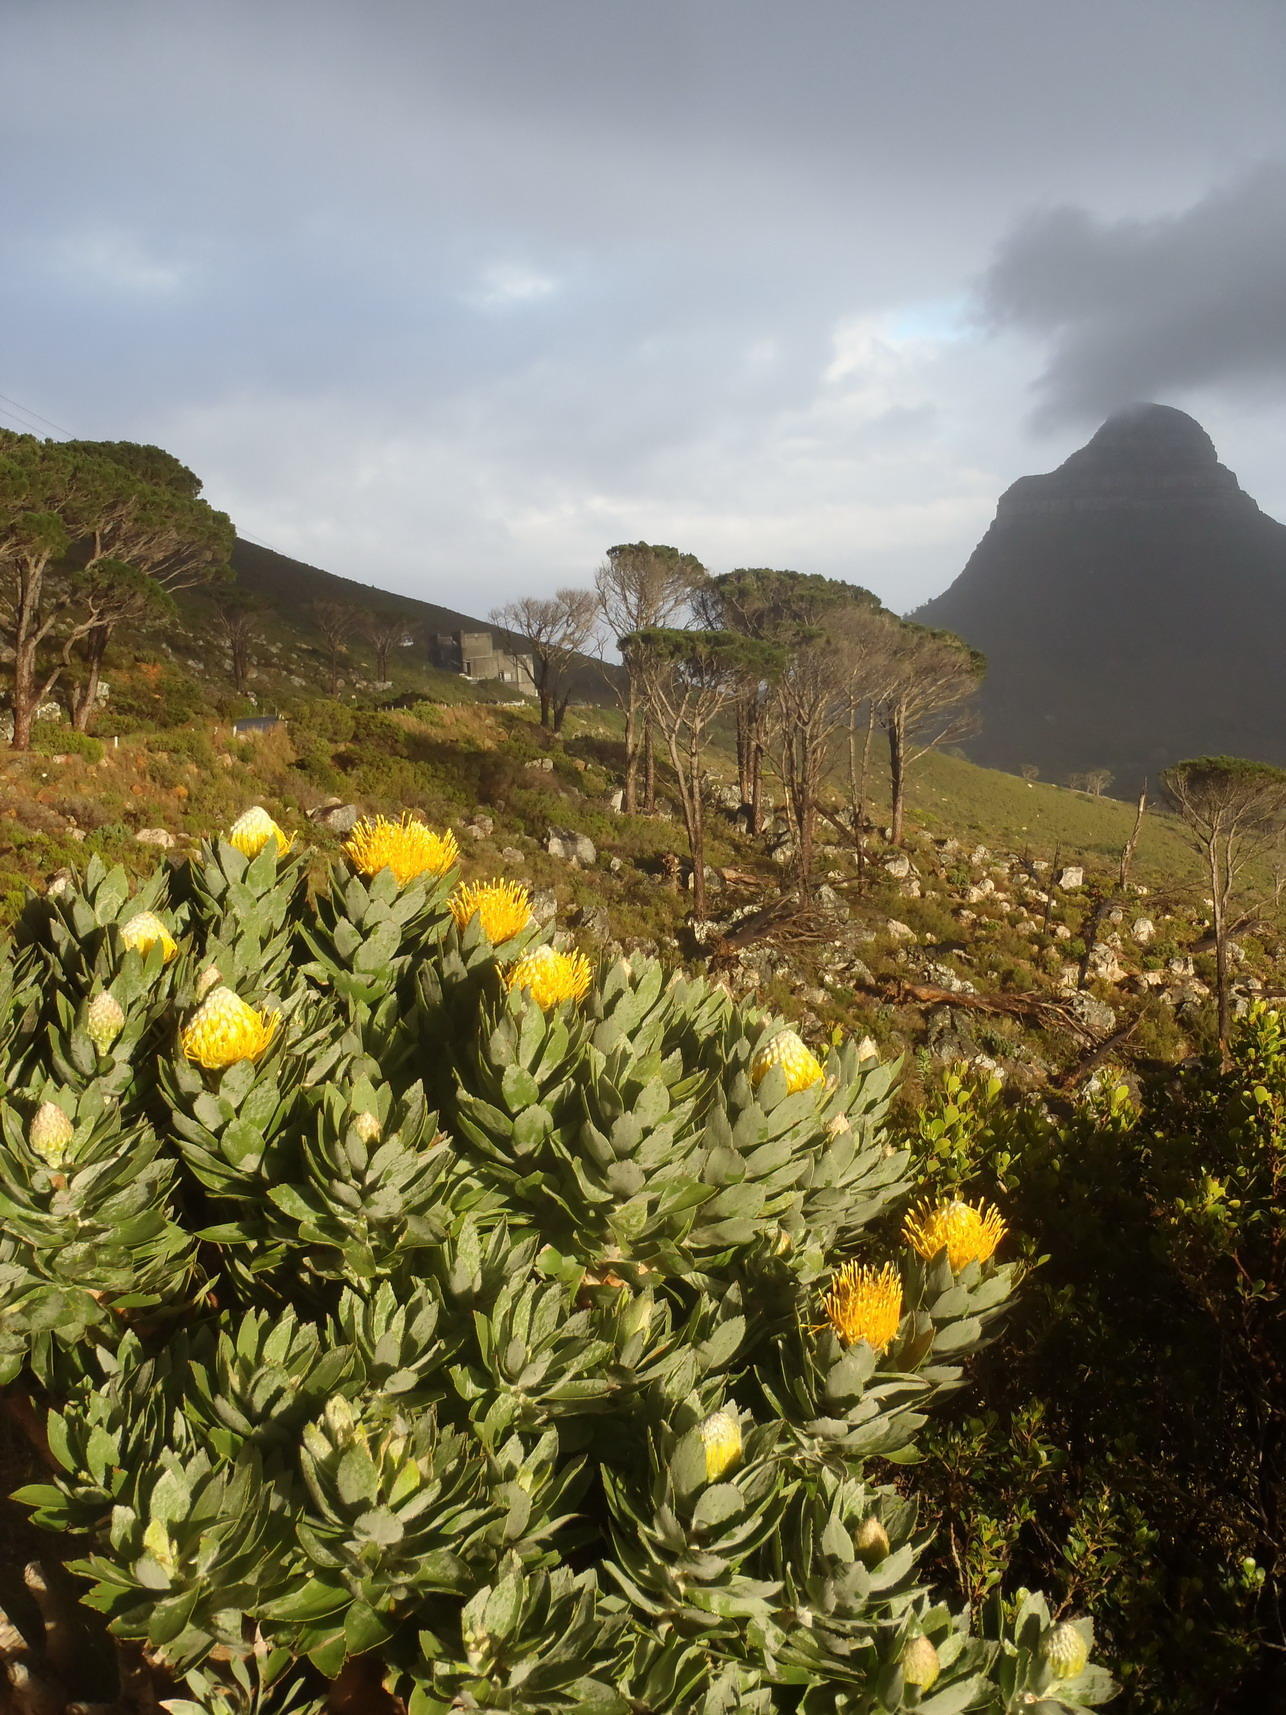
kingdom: Plantae
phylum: Tracheophyta
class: Magnoliopsida
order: Proteales
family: Proteaceae
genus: Leucospermum
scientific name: Leucospermum conocarpodendron
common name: Tree pincushion
